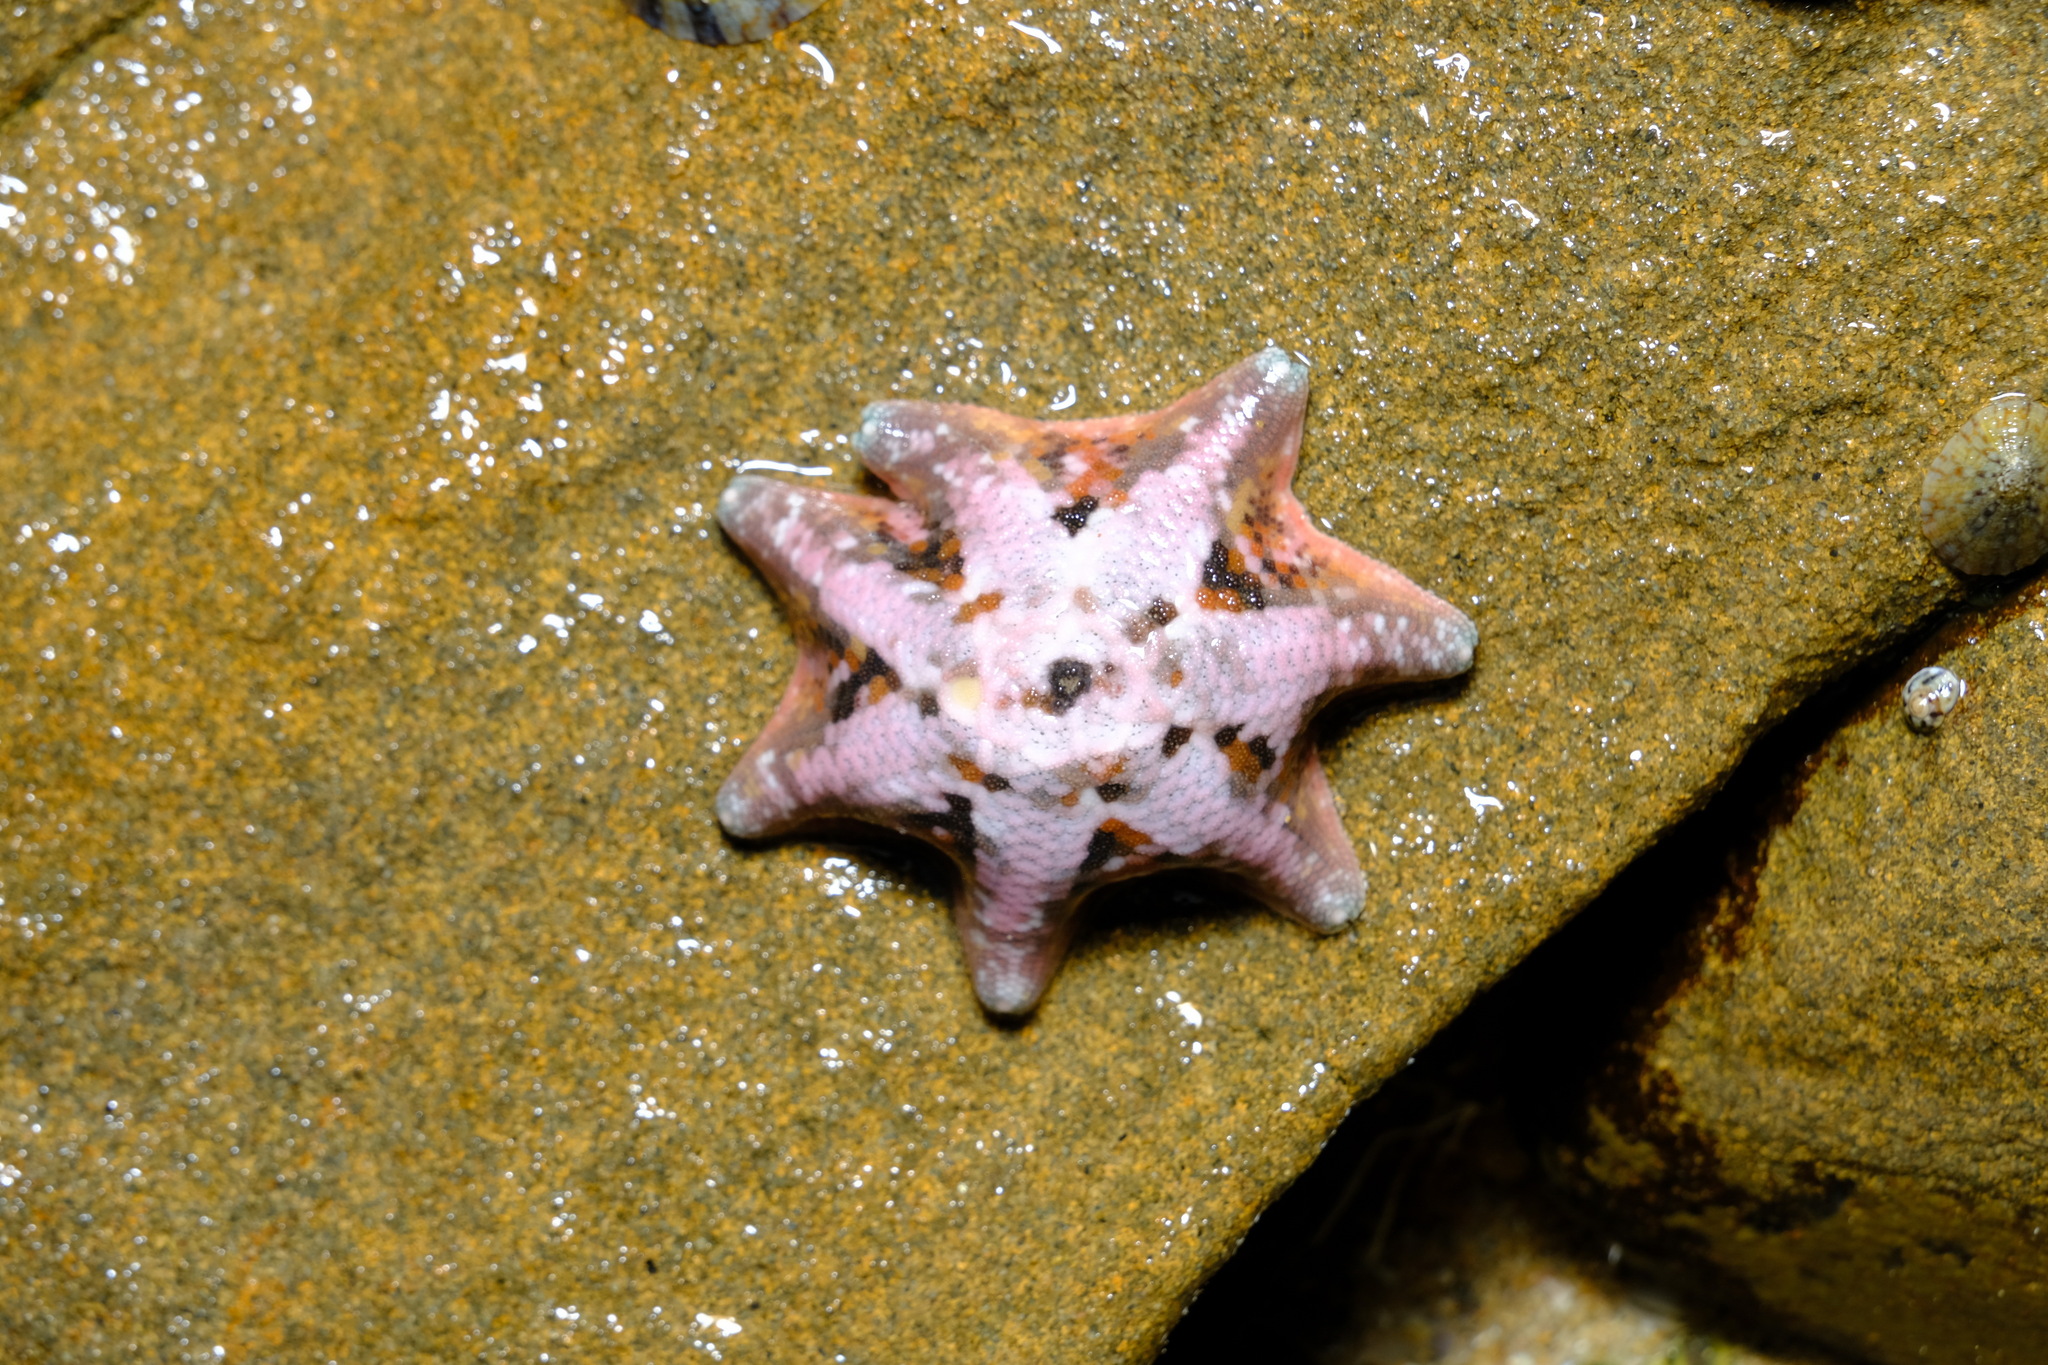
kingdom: Animalia
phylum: Echinodermata
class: Asteroidea
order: Valvatida
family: Asterinidae
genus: Meridiastra
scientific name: Meridiastra calcar
